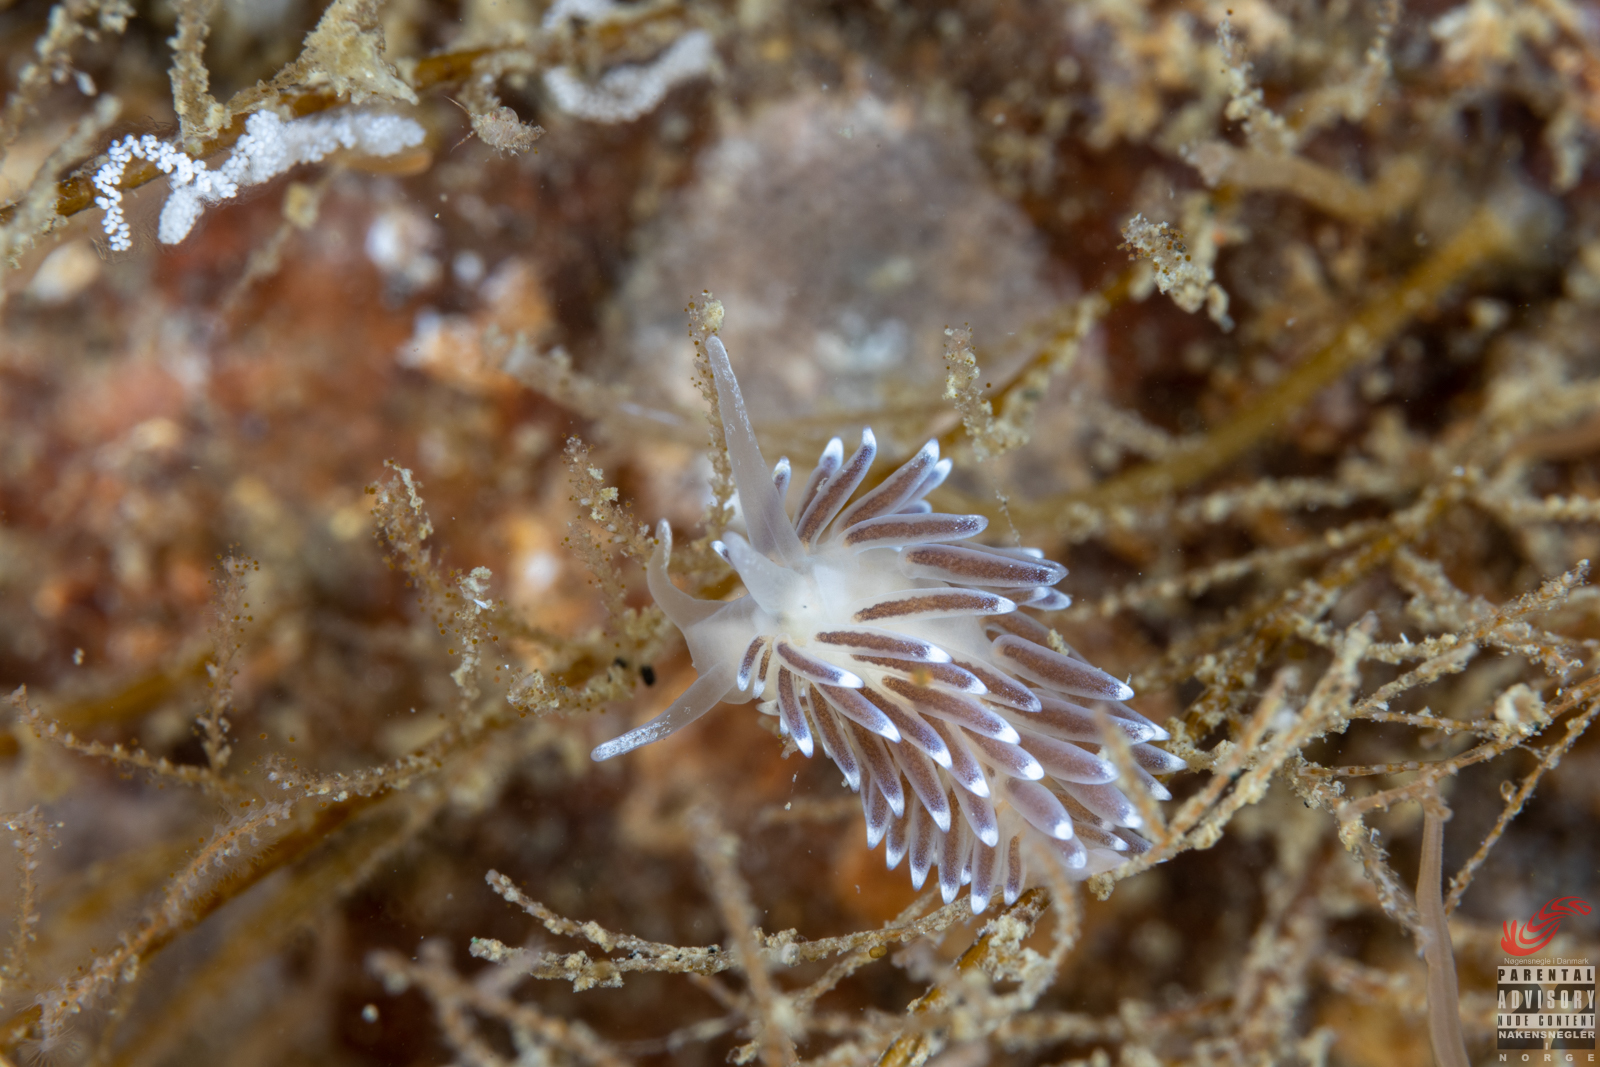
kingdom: Animalia
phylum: Mollusca
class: Gastropoda
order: Nudibranchia
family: Cuthonellidae
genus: Cuthonella
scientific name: Cuthonella concinna
